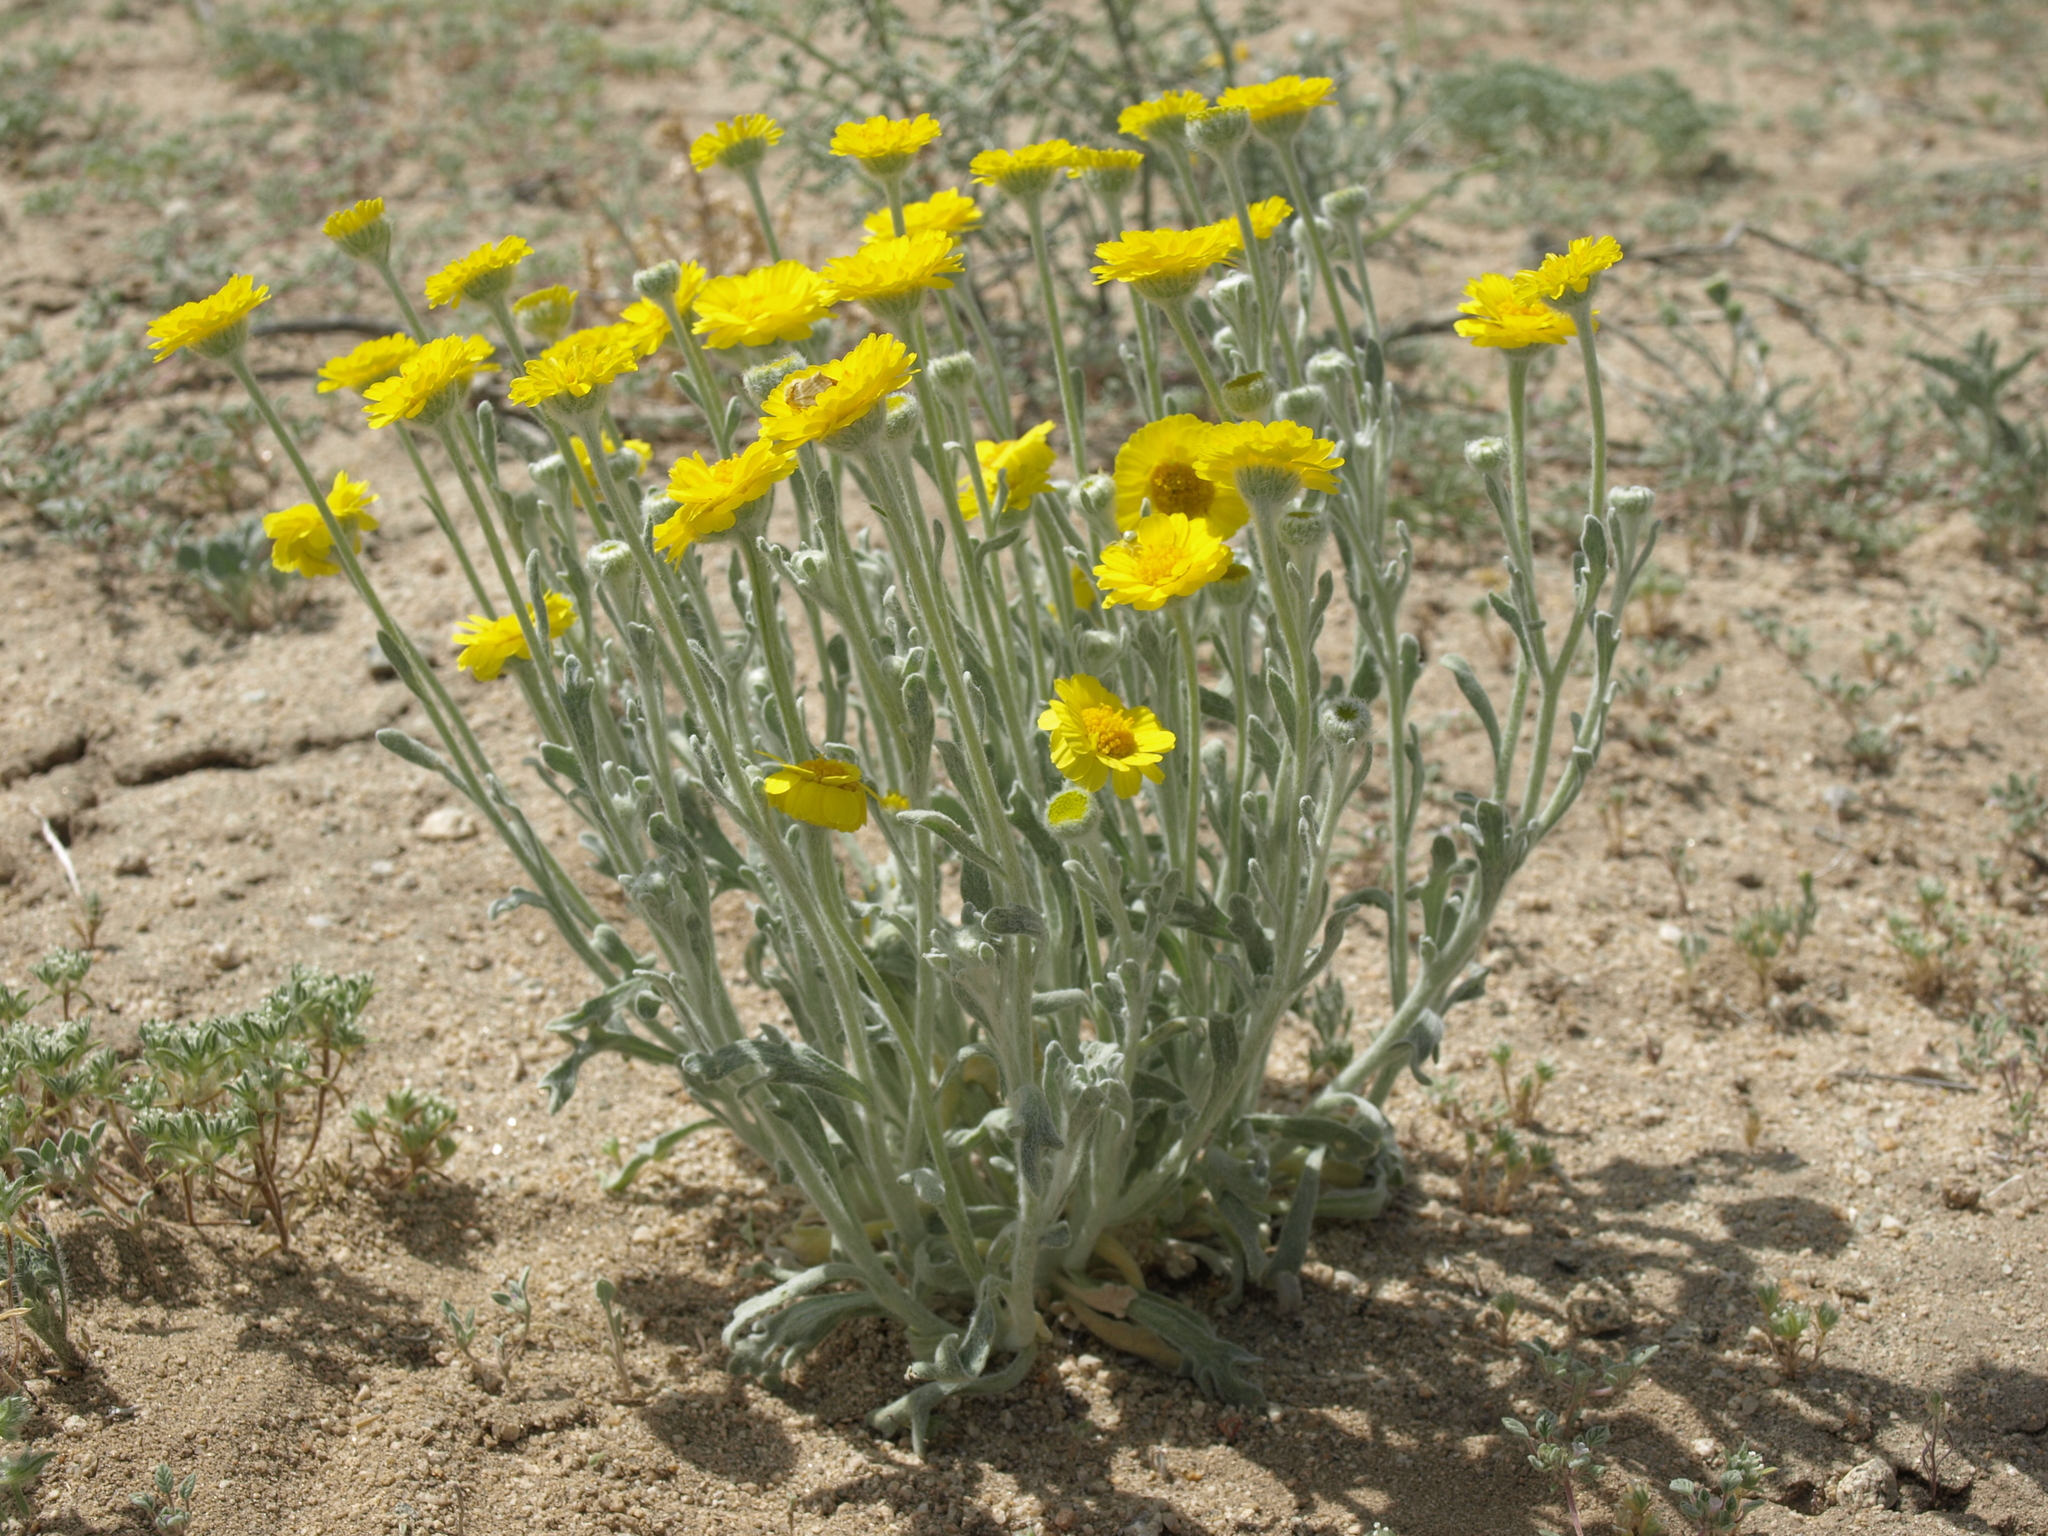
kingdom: Plantae
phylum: Tracheophyta
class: Magnoliopsida
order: Asterales
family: Asteraceae
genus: Baileya
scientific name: Baileya pleniradiata
